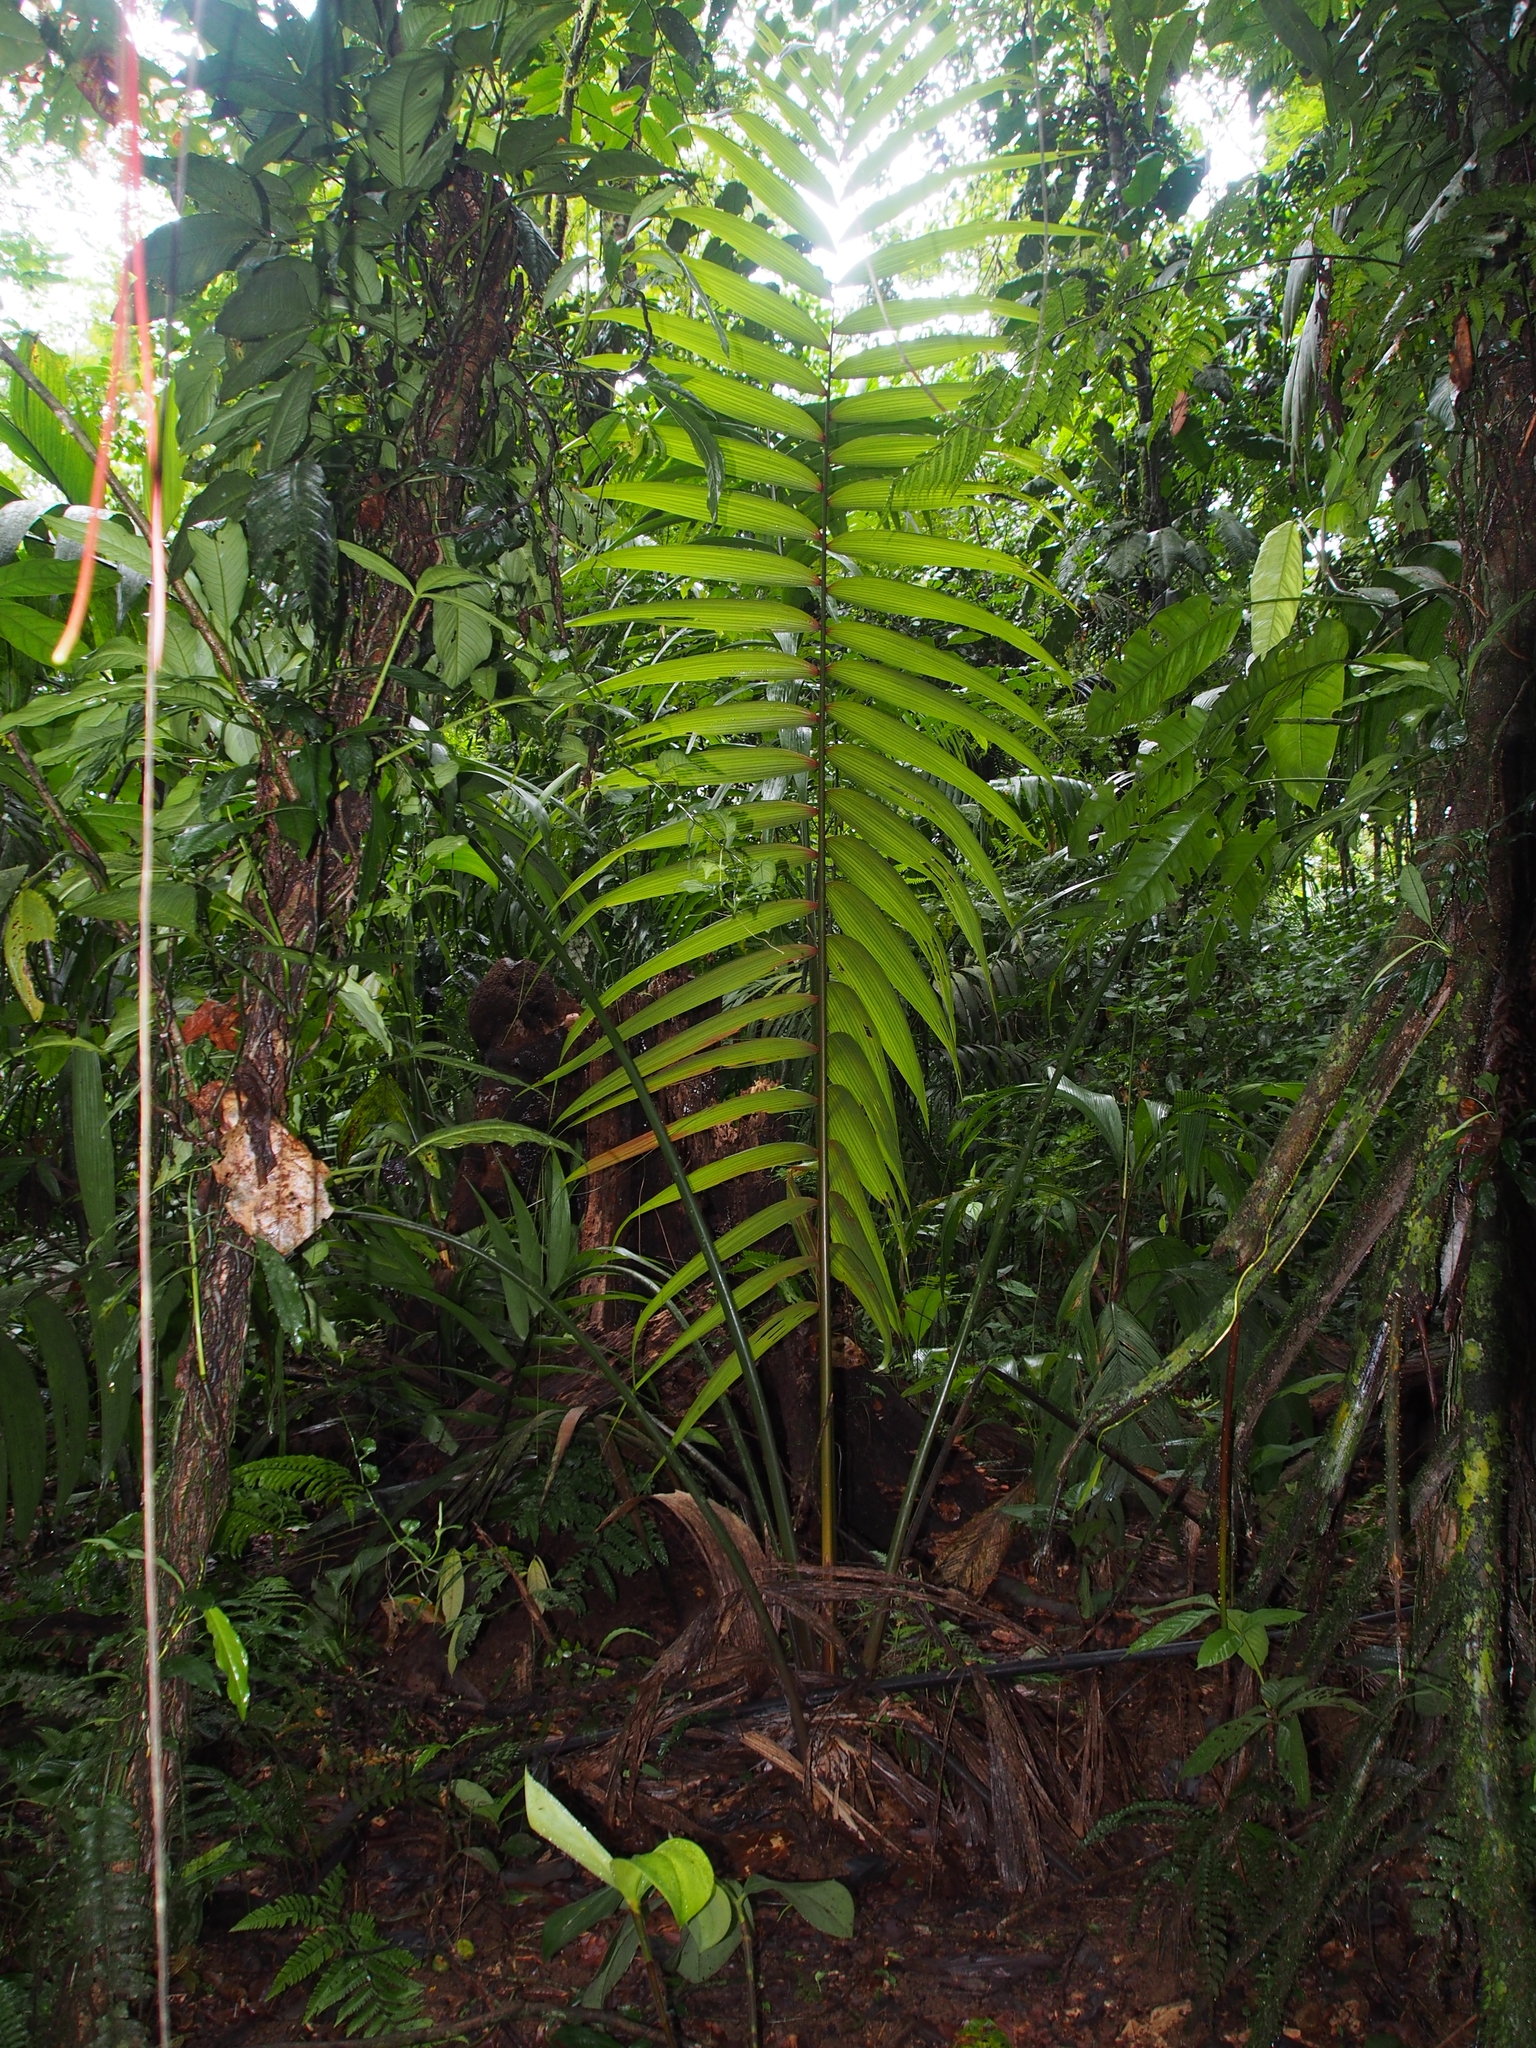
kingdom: Plantae
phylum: Tracheophyta
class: Liliopsida
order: Arecales
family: Arecaceae
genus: Welfia
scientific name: Welfia regia
